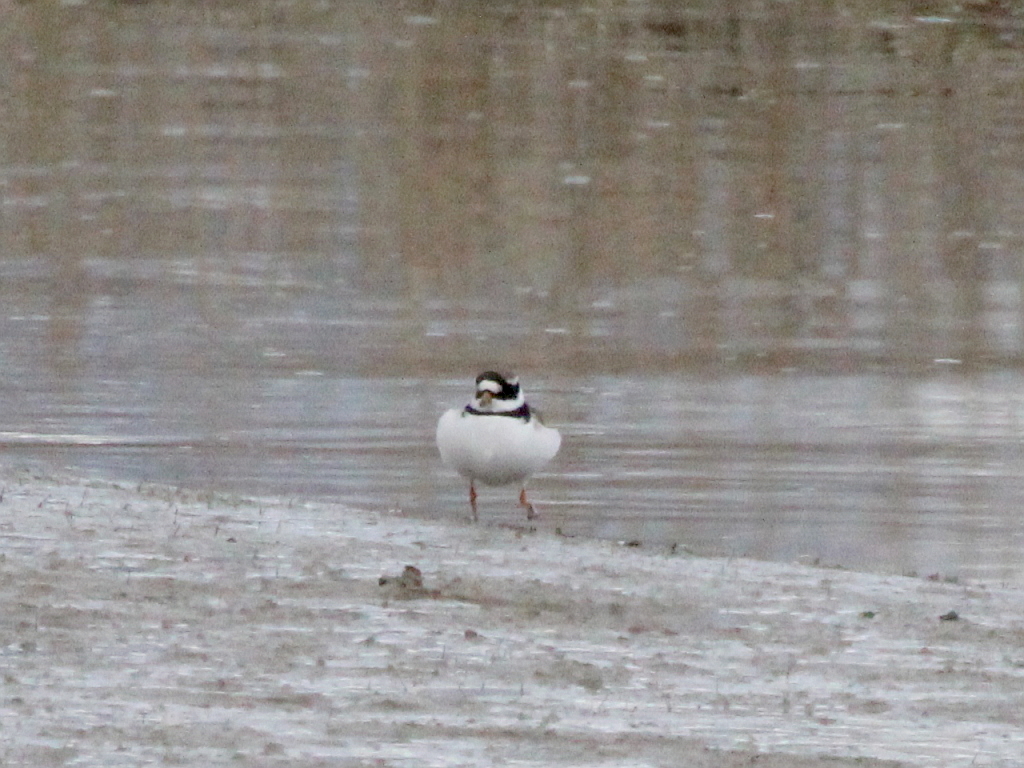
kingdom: Animalia
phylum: Chordata
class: Aves
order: Charadriiformes
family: Charadriidae
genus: Charadrius
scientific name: Charadrius hiaticula
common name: Common ringed plover
